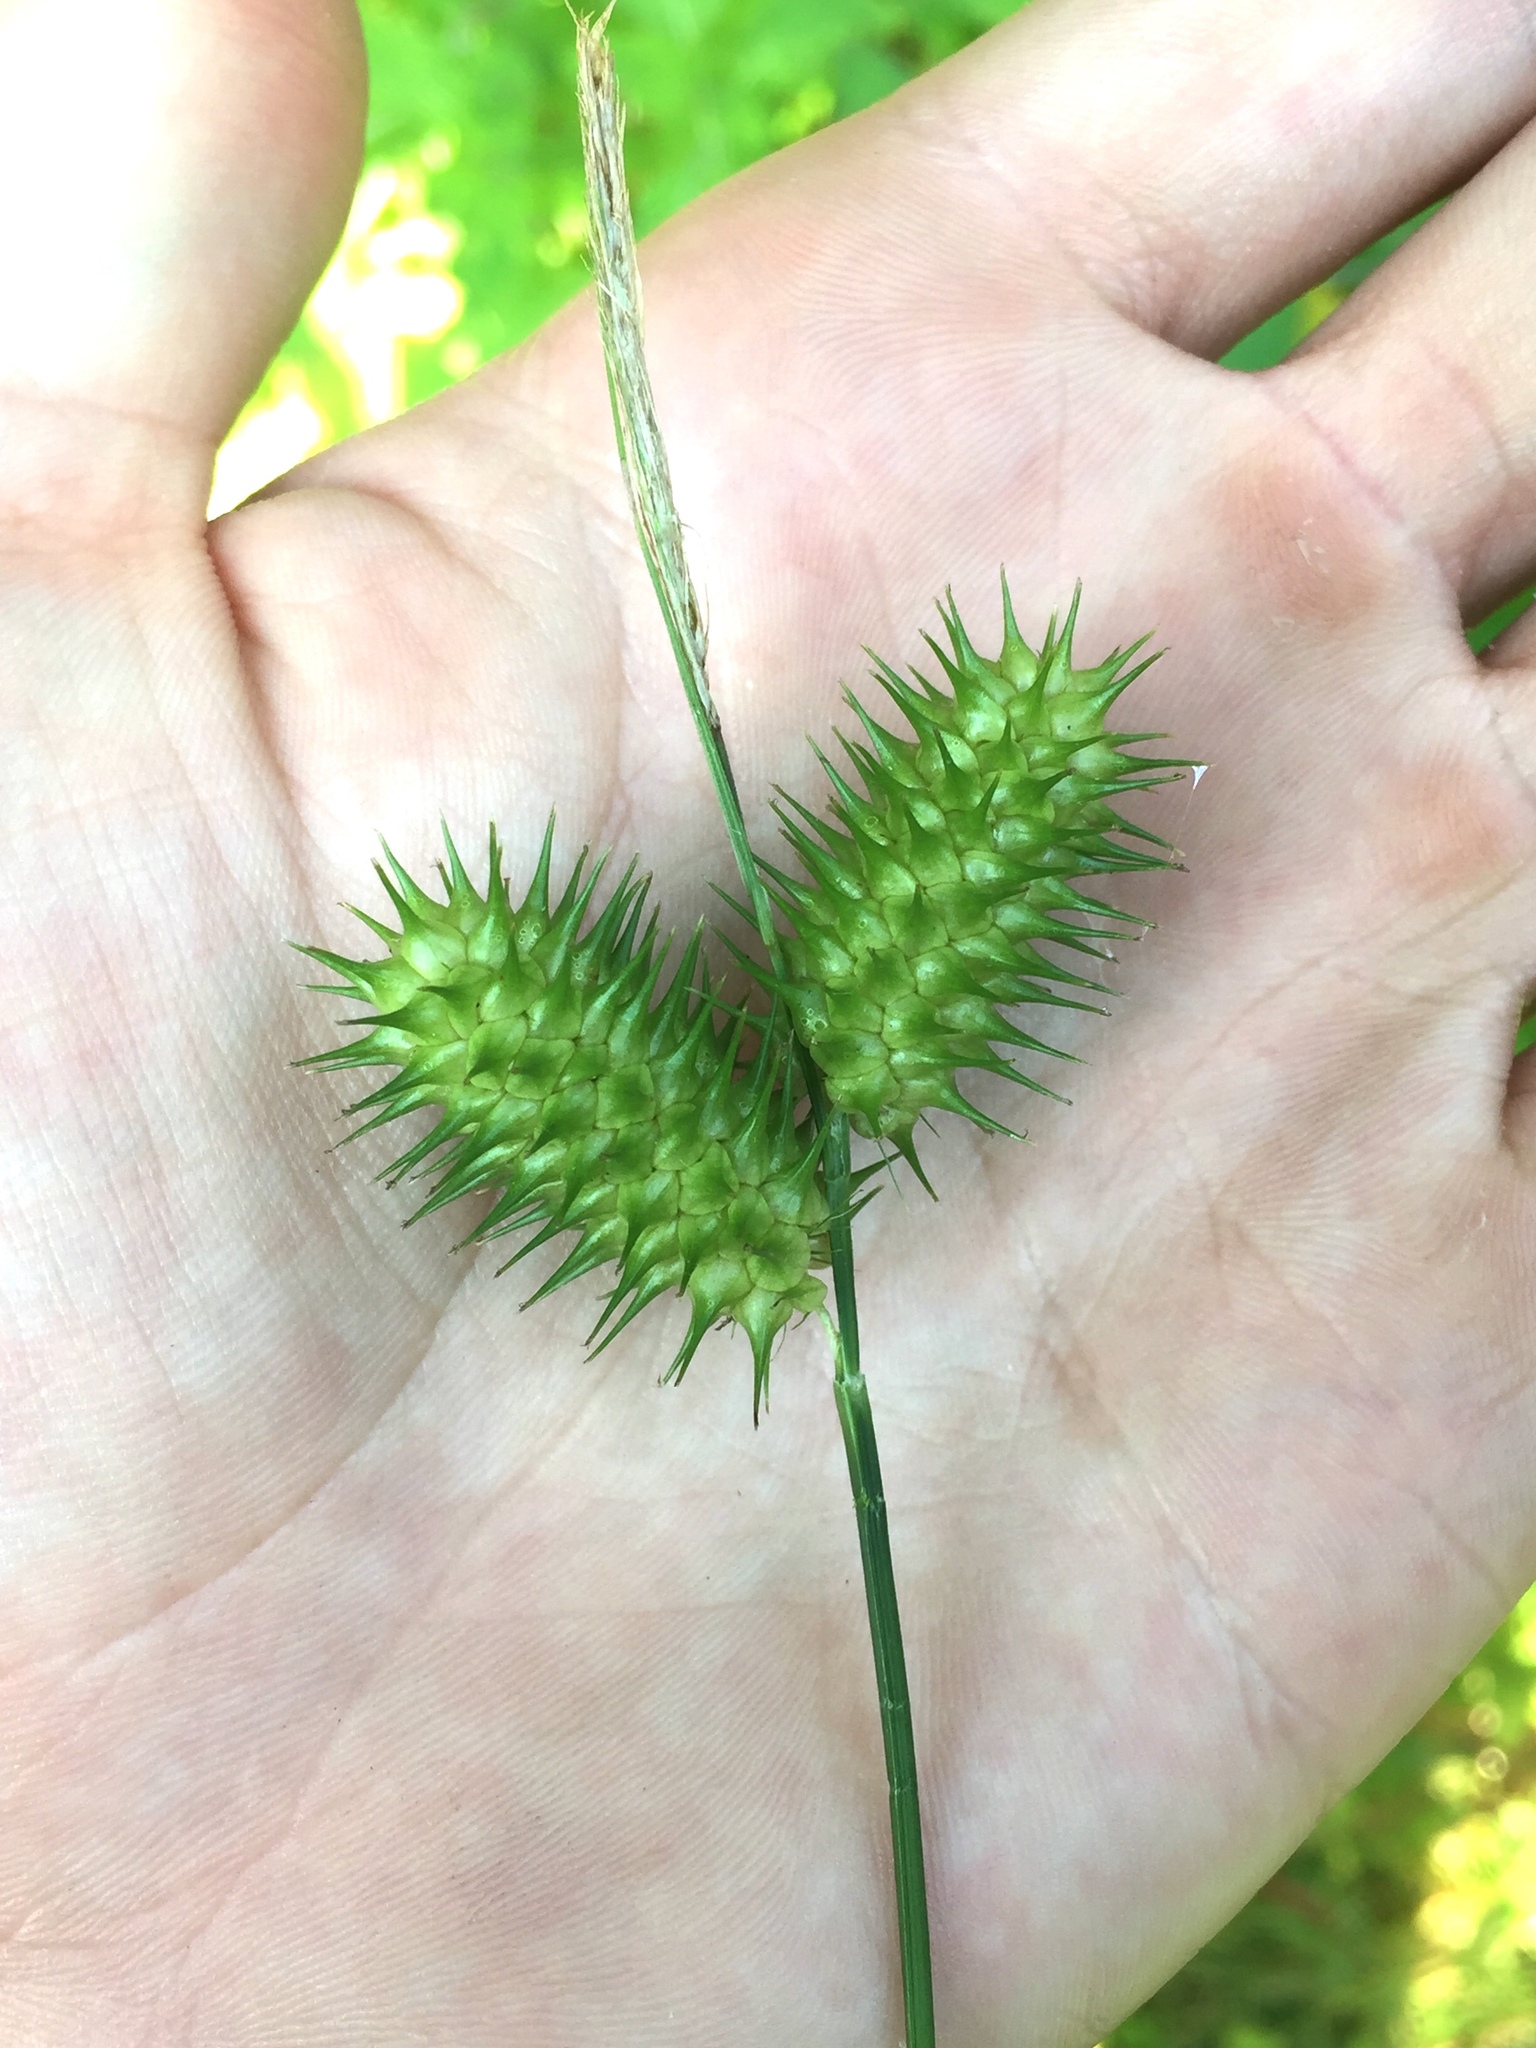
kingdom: Plantae
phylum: Tracheophyta
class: Liliopsida
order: Poales
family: Cyperaceae
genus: Carex
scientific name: Carex lurida
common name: Sallow sedge
